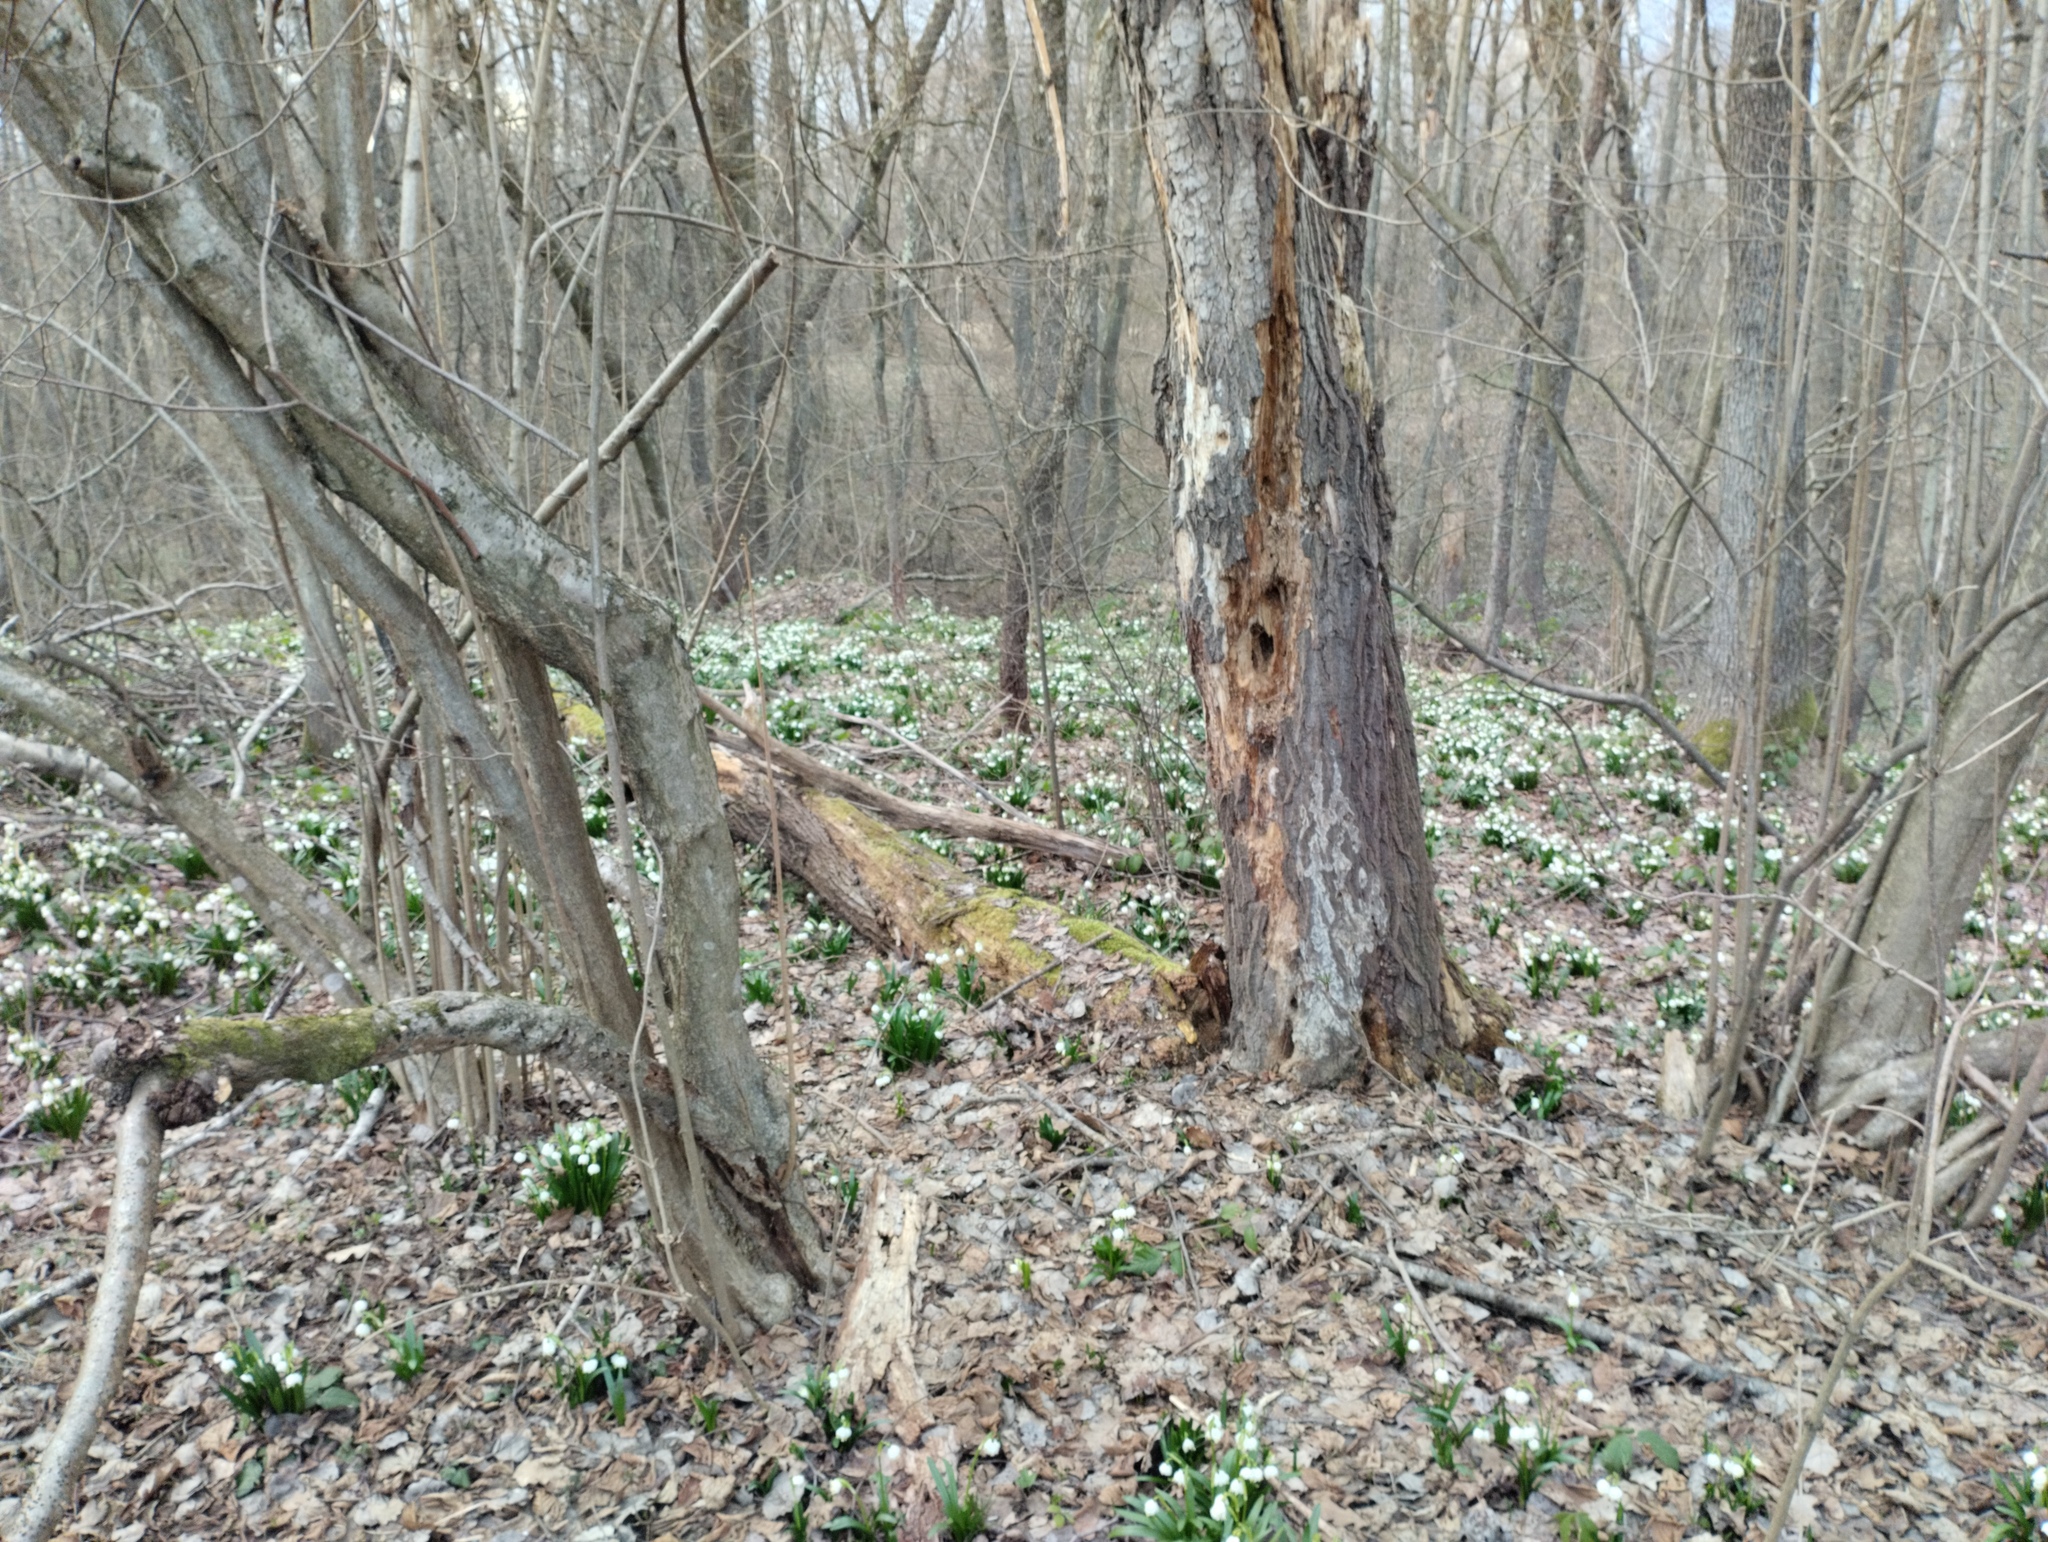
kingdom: Plantae
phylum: Tracheophyta
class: Liliopsida
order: Asparagales
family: Amaryllidaceae
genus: Leucojum
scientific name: Leucojum vernum
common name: Spring snowflake
